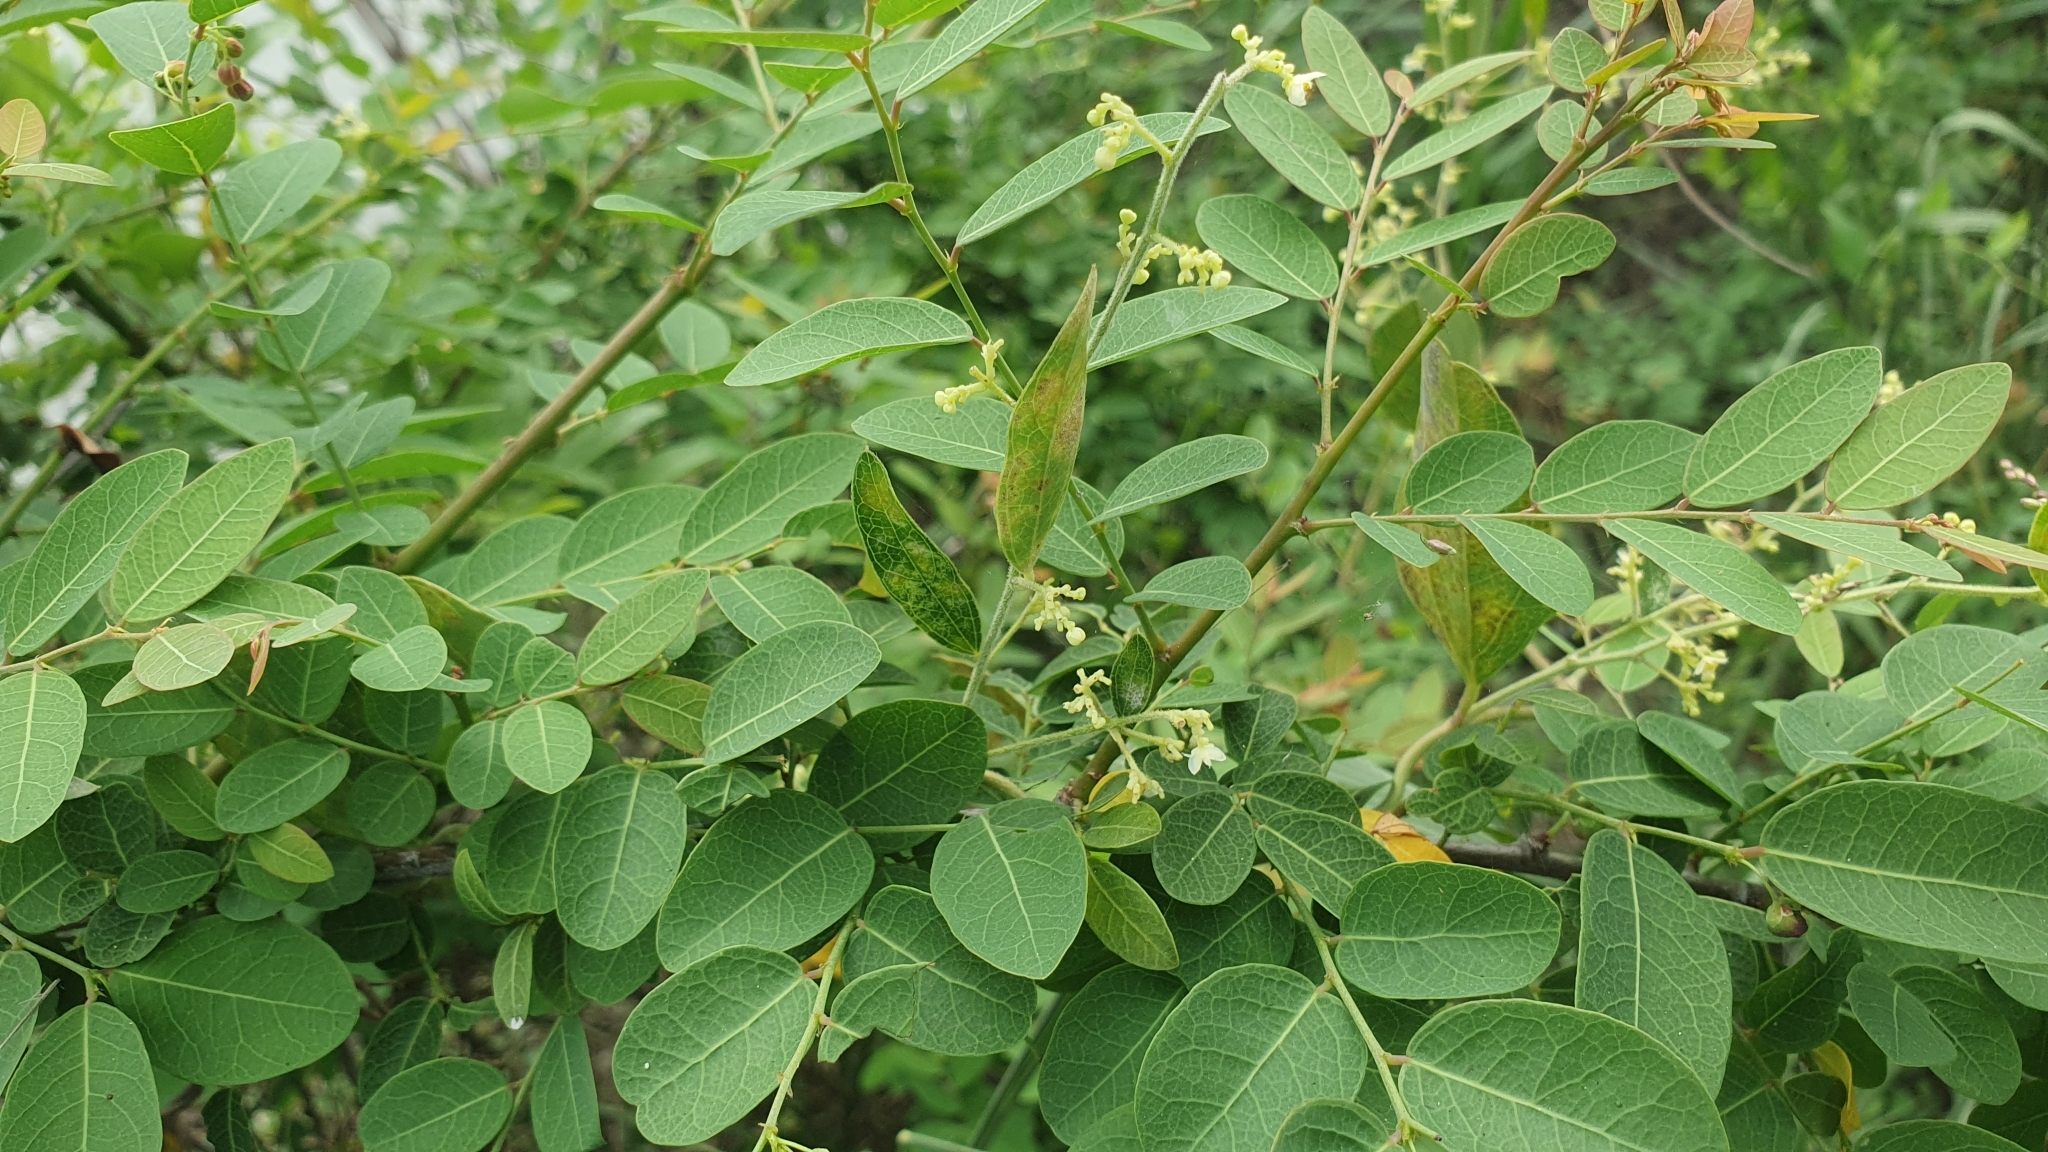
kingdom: Plantae
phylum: Tracheophyta
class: Magnoliopsida
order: Malpighiales
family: Phyllanthaceae
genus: Phyllanthus
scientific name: Phyllanthus reticulatus
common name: Potato bush
